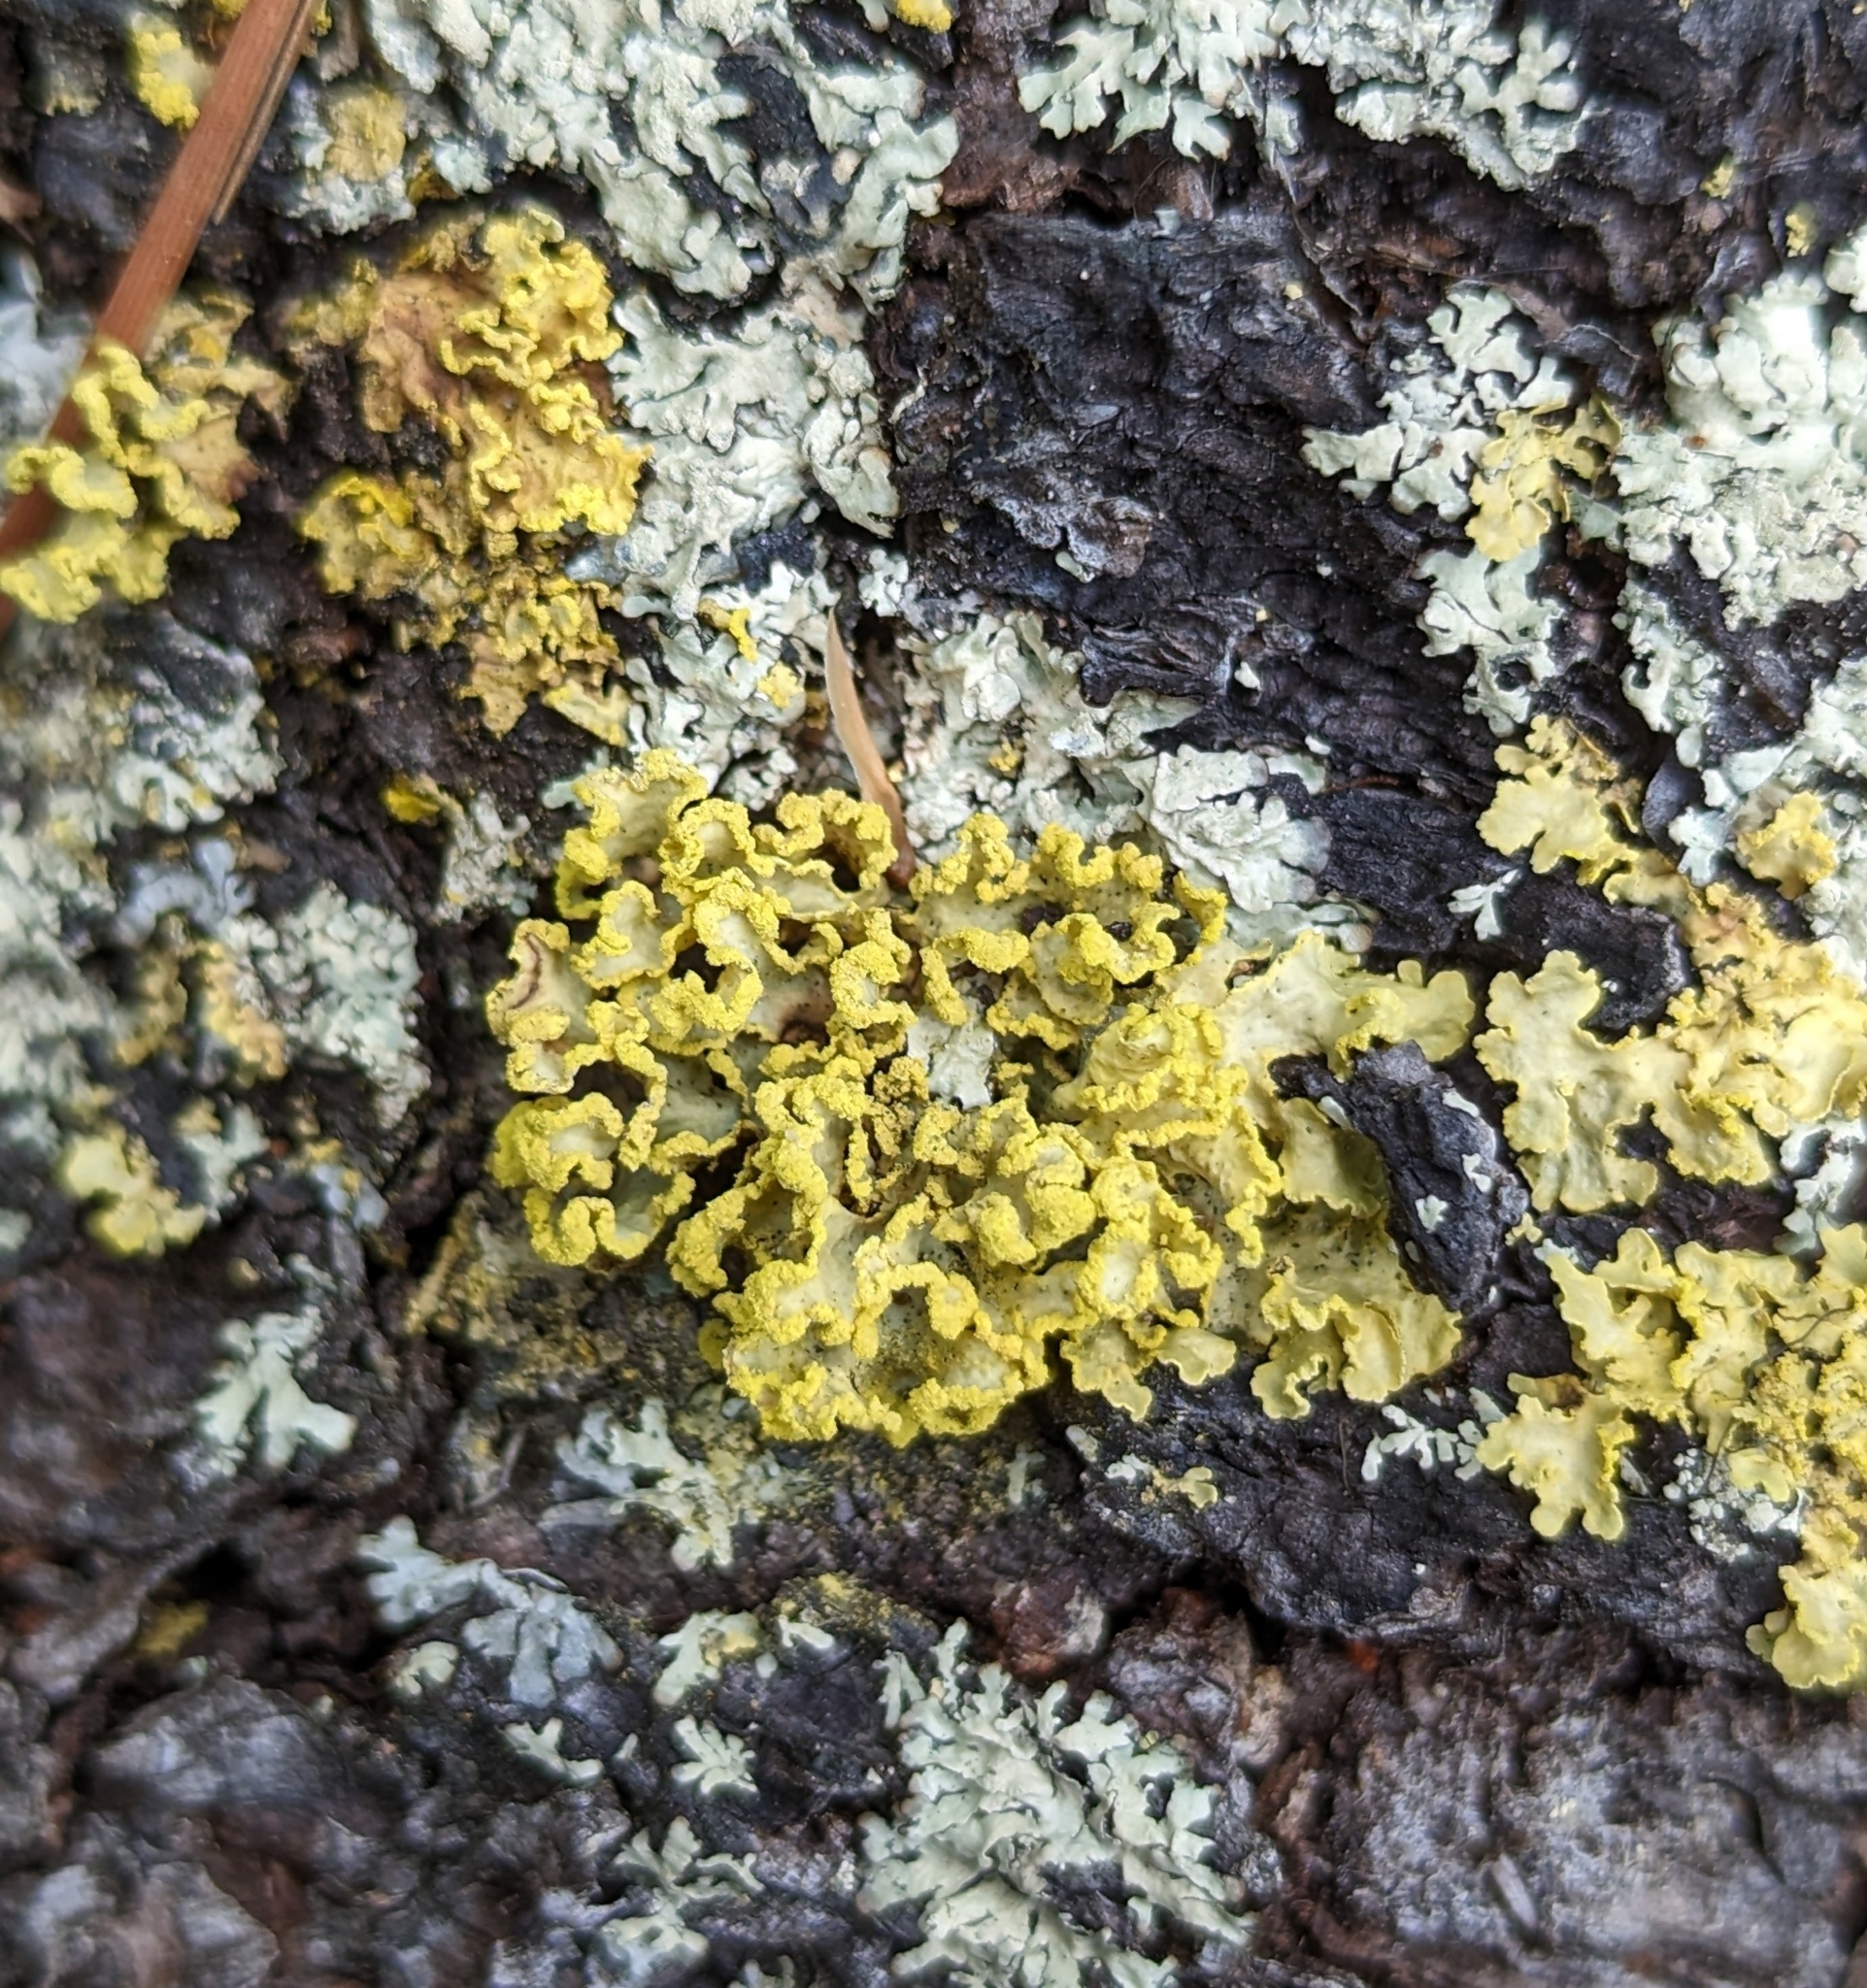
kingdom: Fungi
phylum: Ascomycota
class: Lecanoromycetes
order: Lecanorales
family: Parmeliaceae
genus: Vulpicida
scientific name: Vulpicida pinastri
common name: Powdered sunshine lichen
